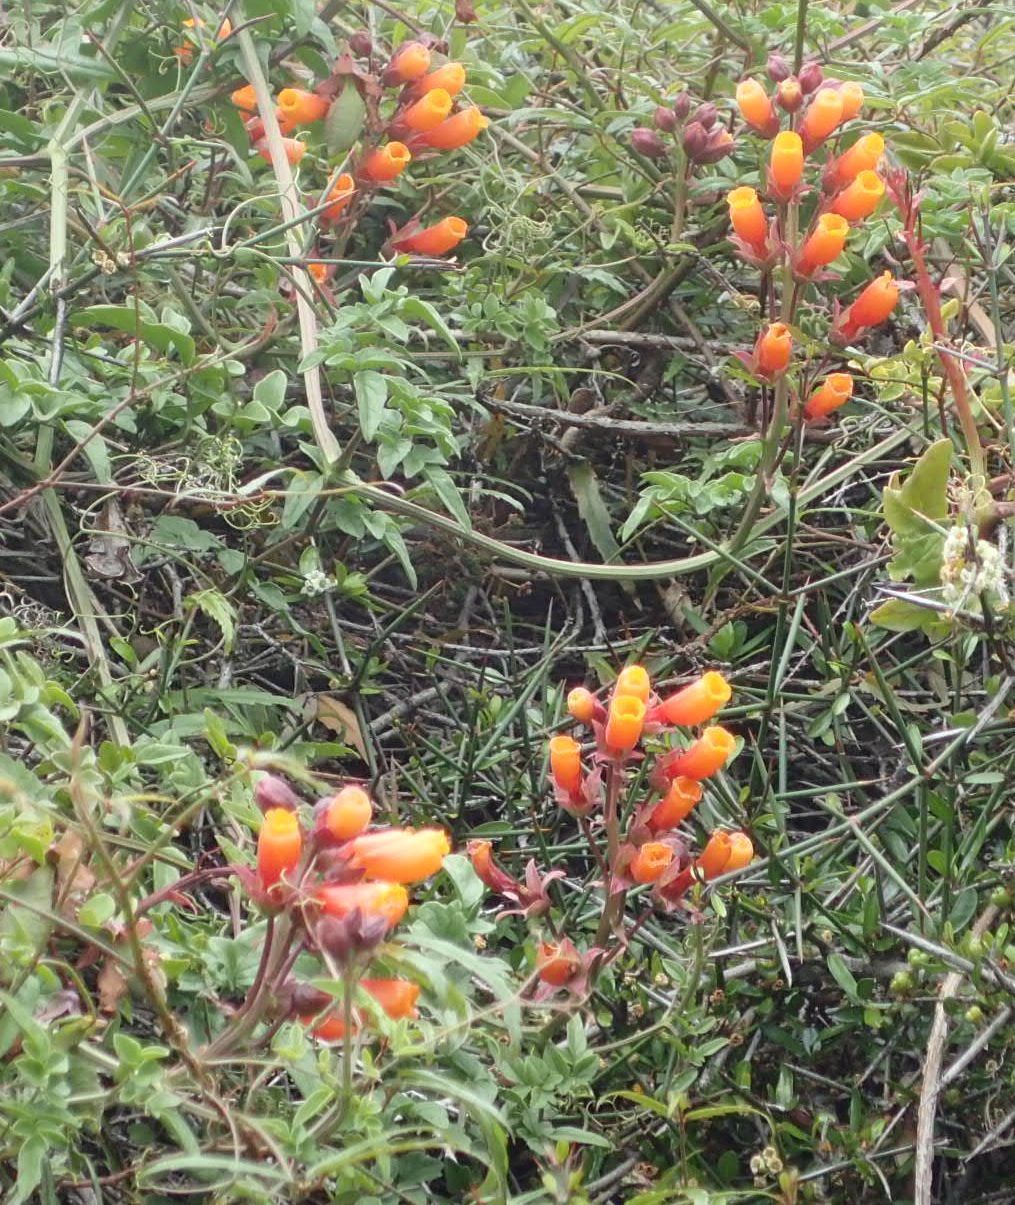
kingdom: Plantae
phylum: Tracheophyta
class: Magnoliopsida
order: Lamiales
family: Bignoniaceae
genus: Eccremocarpus
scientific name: Eccremocarpus scaber
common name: Chilean glory-flower
